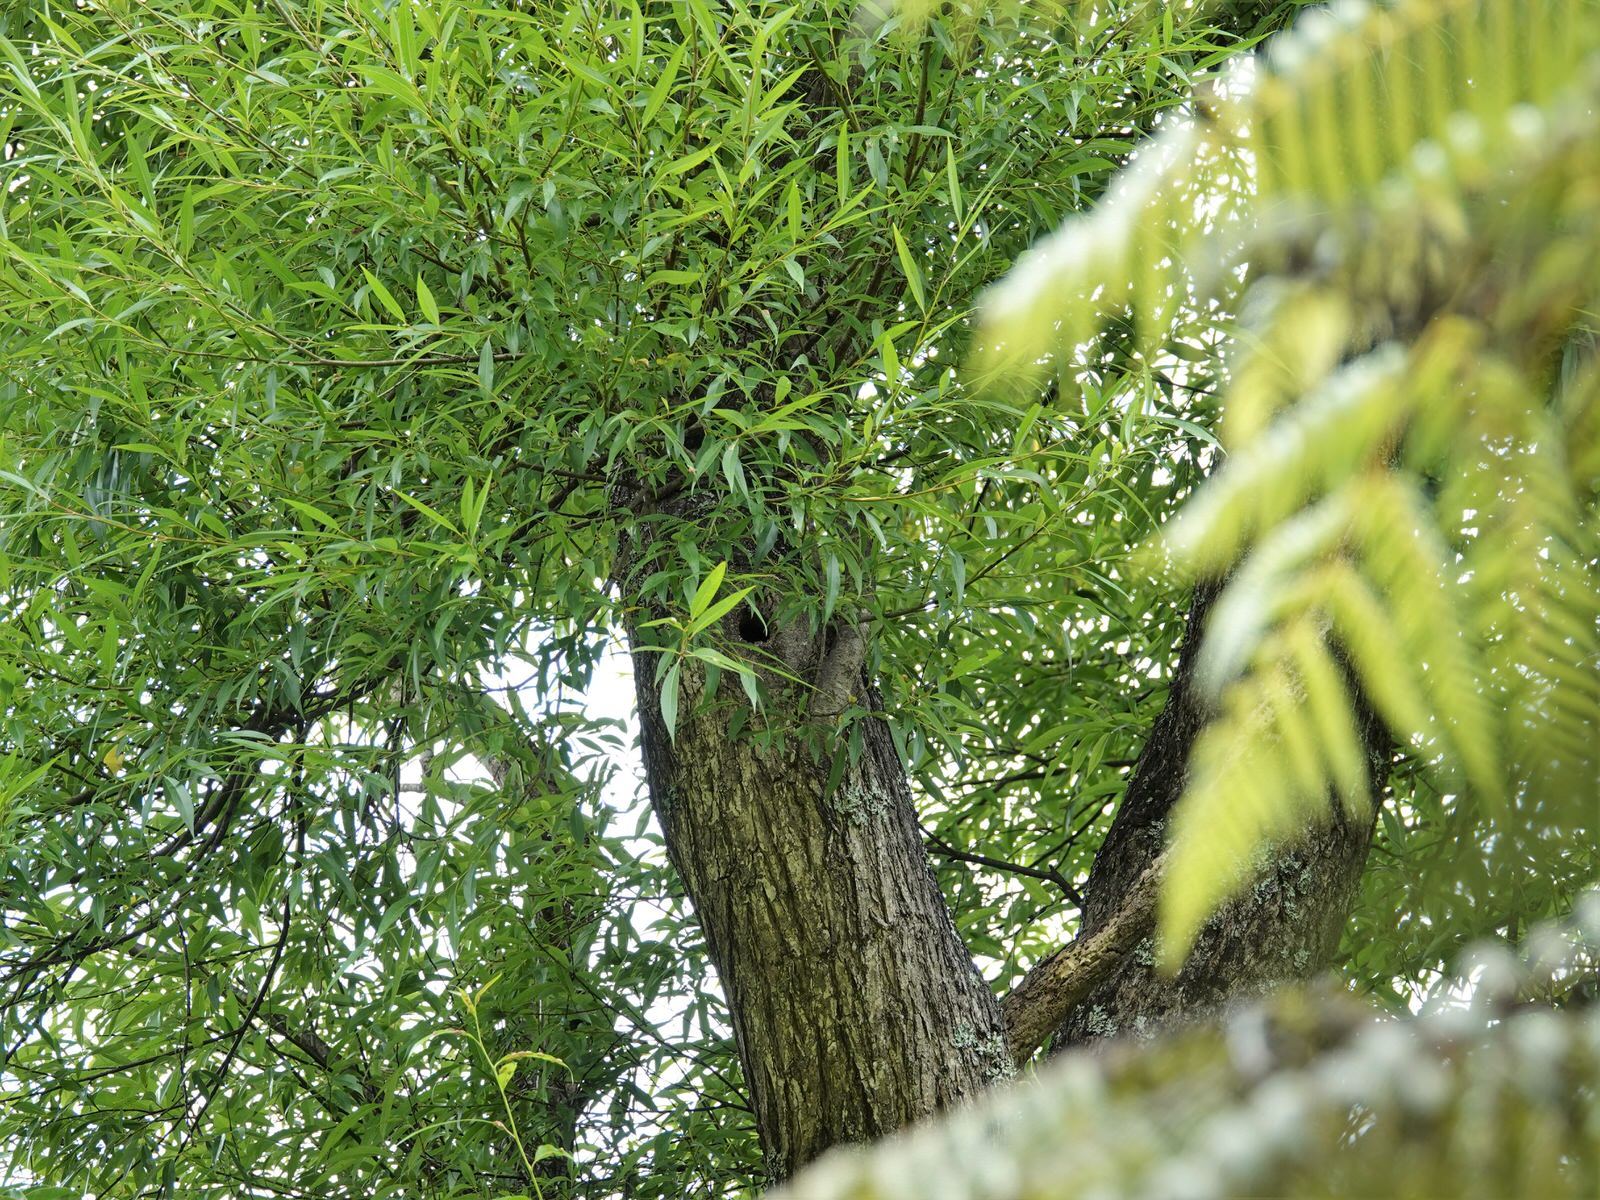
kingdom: Animalia
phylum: Chordata
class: Aves
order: Coraciiformes
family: Alcedinidae
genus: Todiramphus
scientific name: Todiramphus sanctus
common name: Sacred kingfisher
